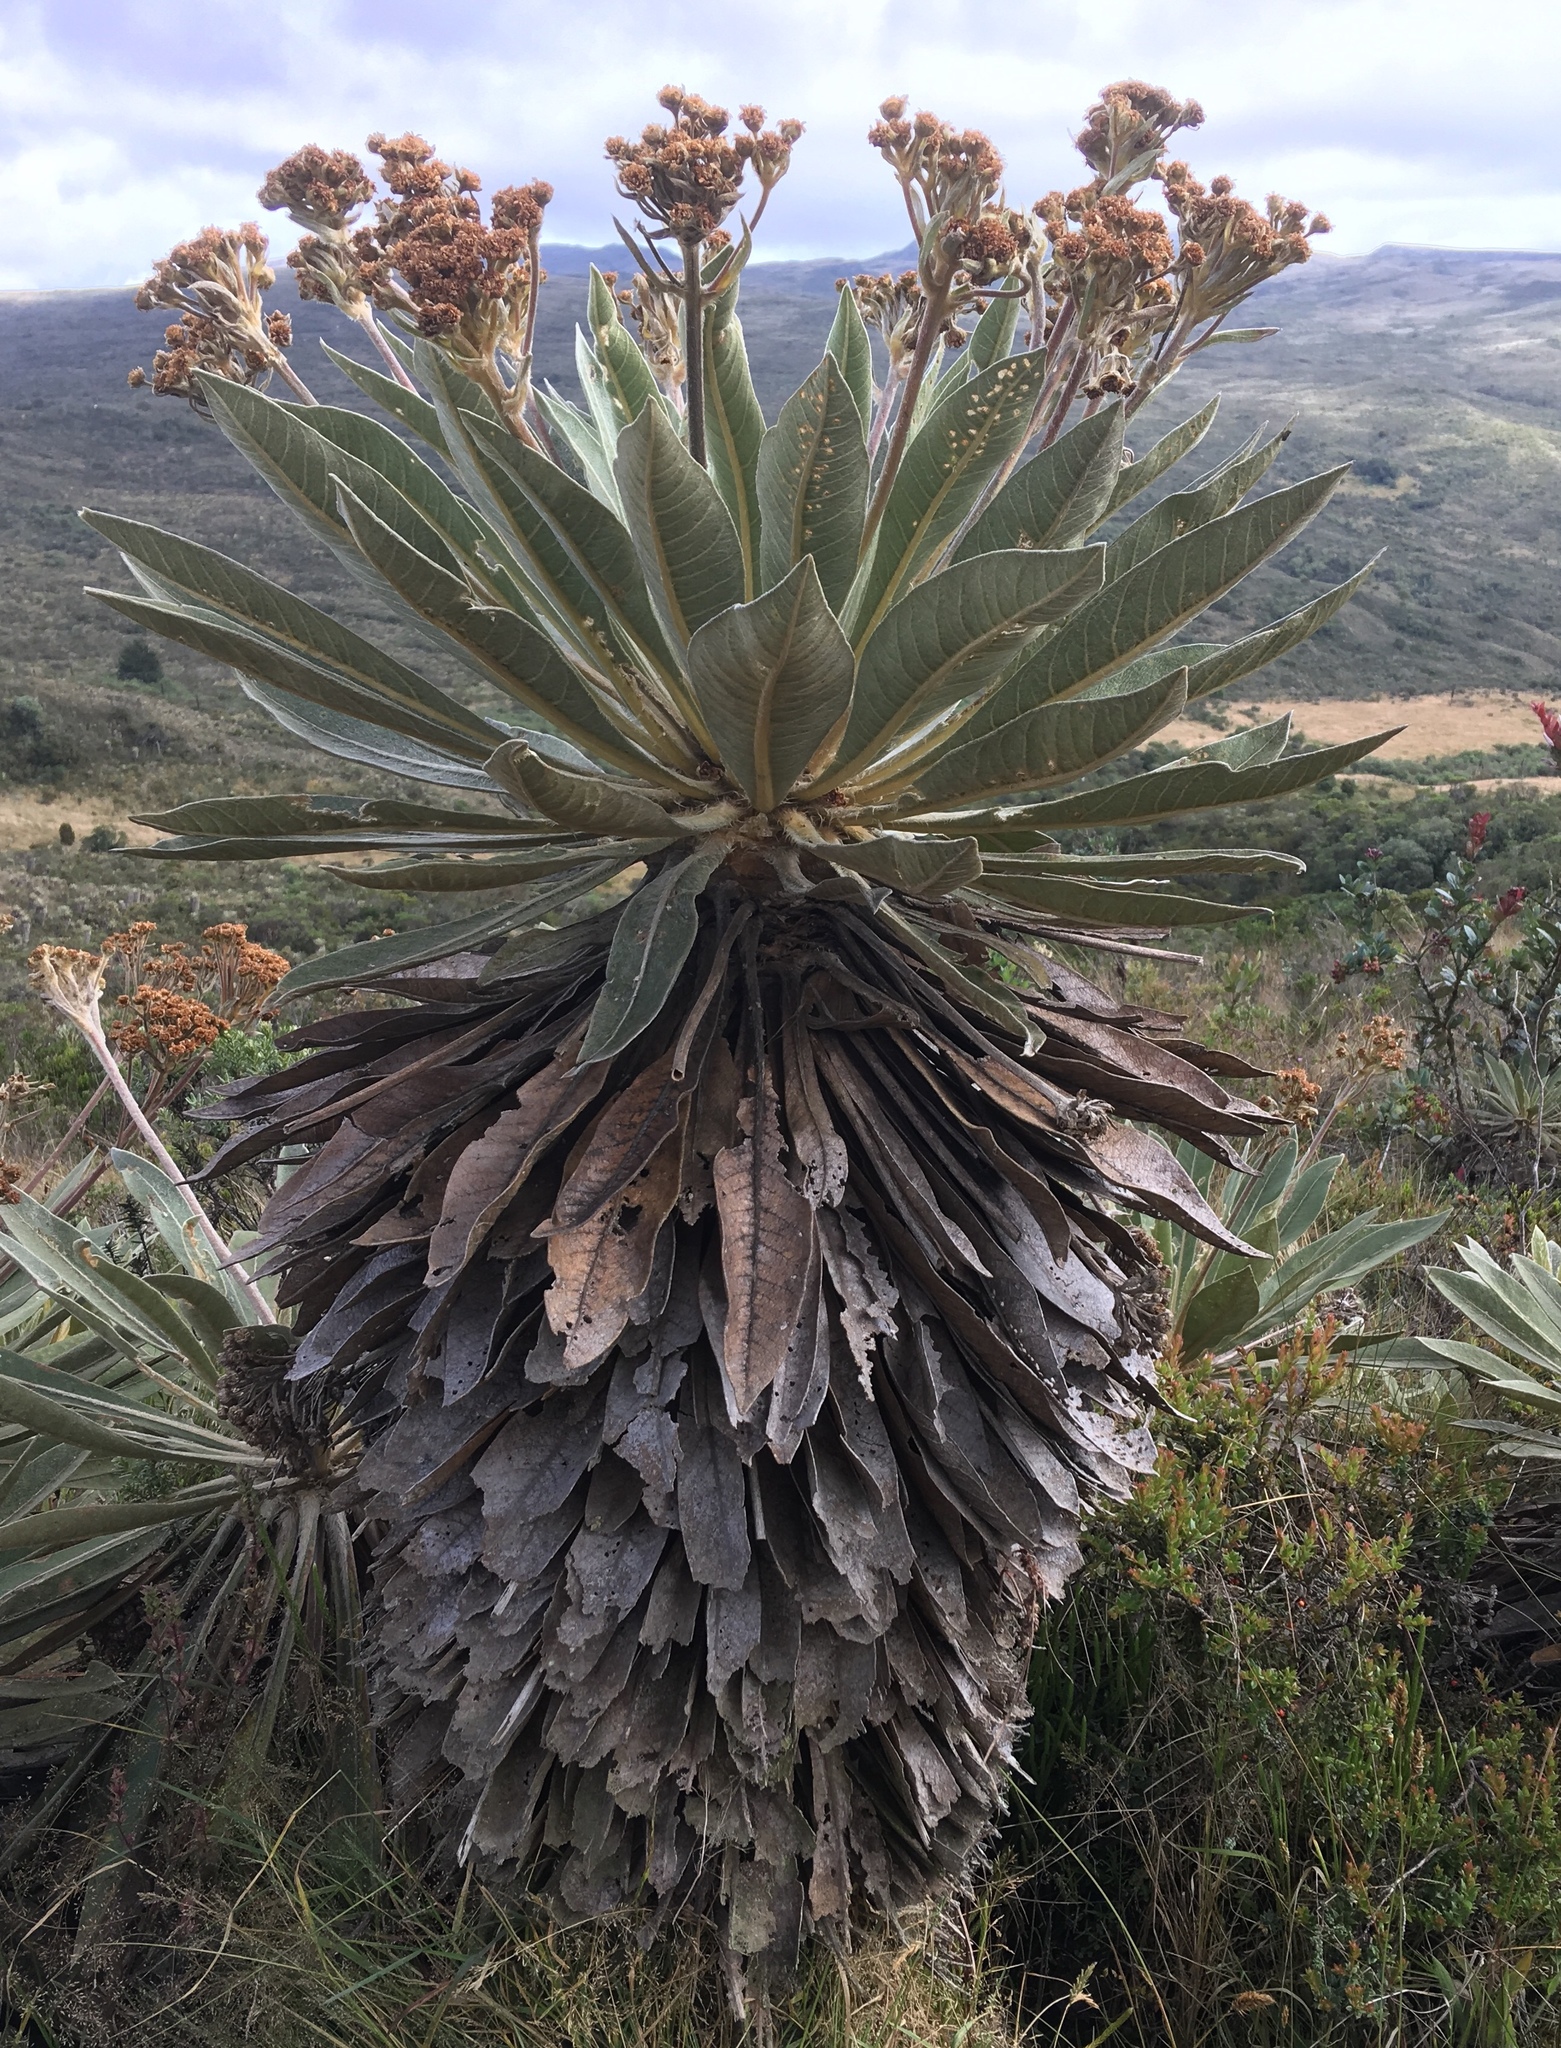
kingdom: Plantae
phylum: Tracheophyta
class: Magnoliopsida
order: Asterales
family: Asteraceae
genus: Espeletia
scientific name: Espeletia corymbosa
